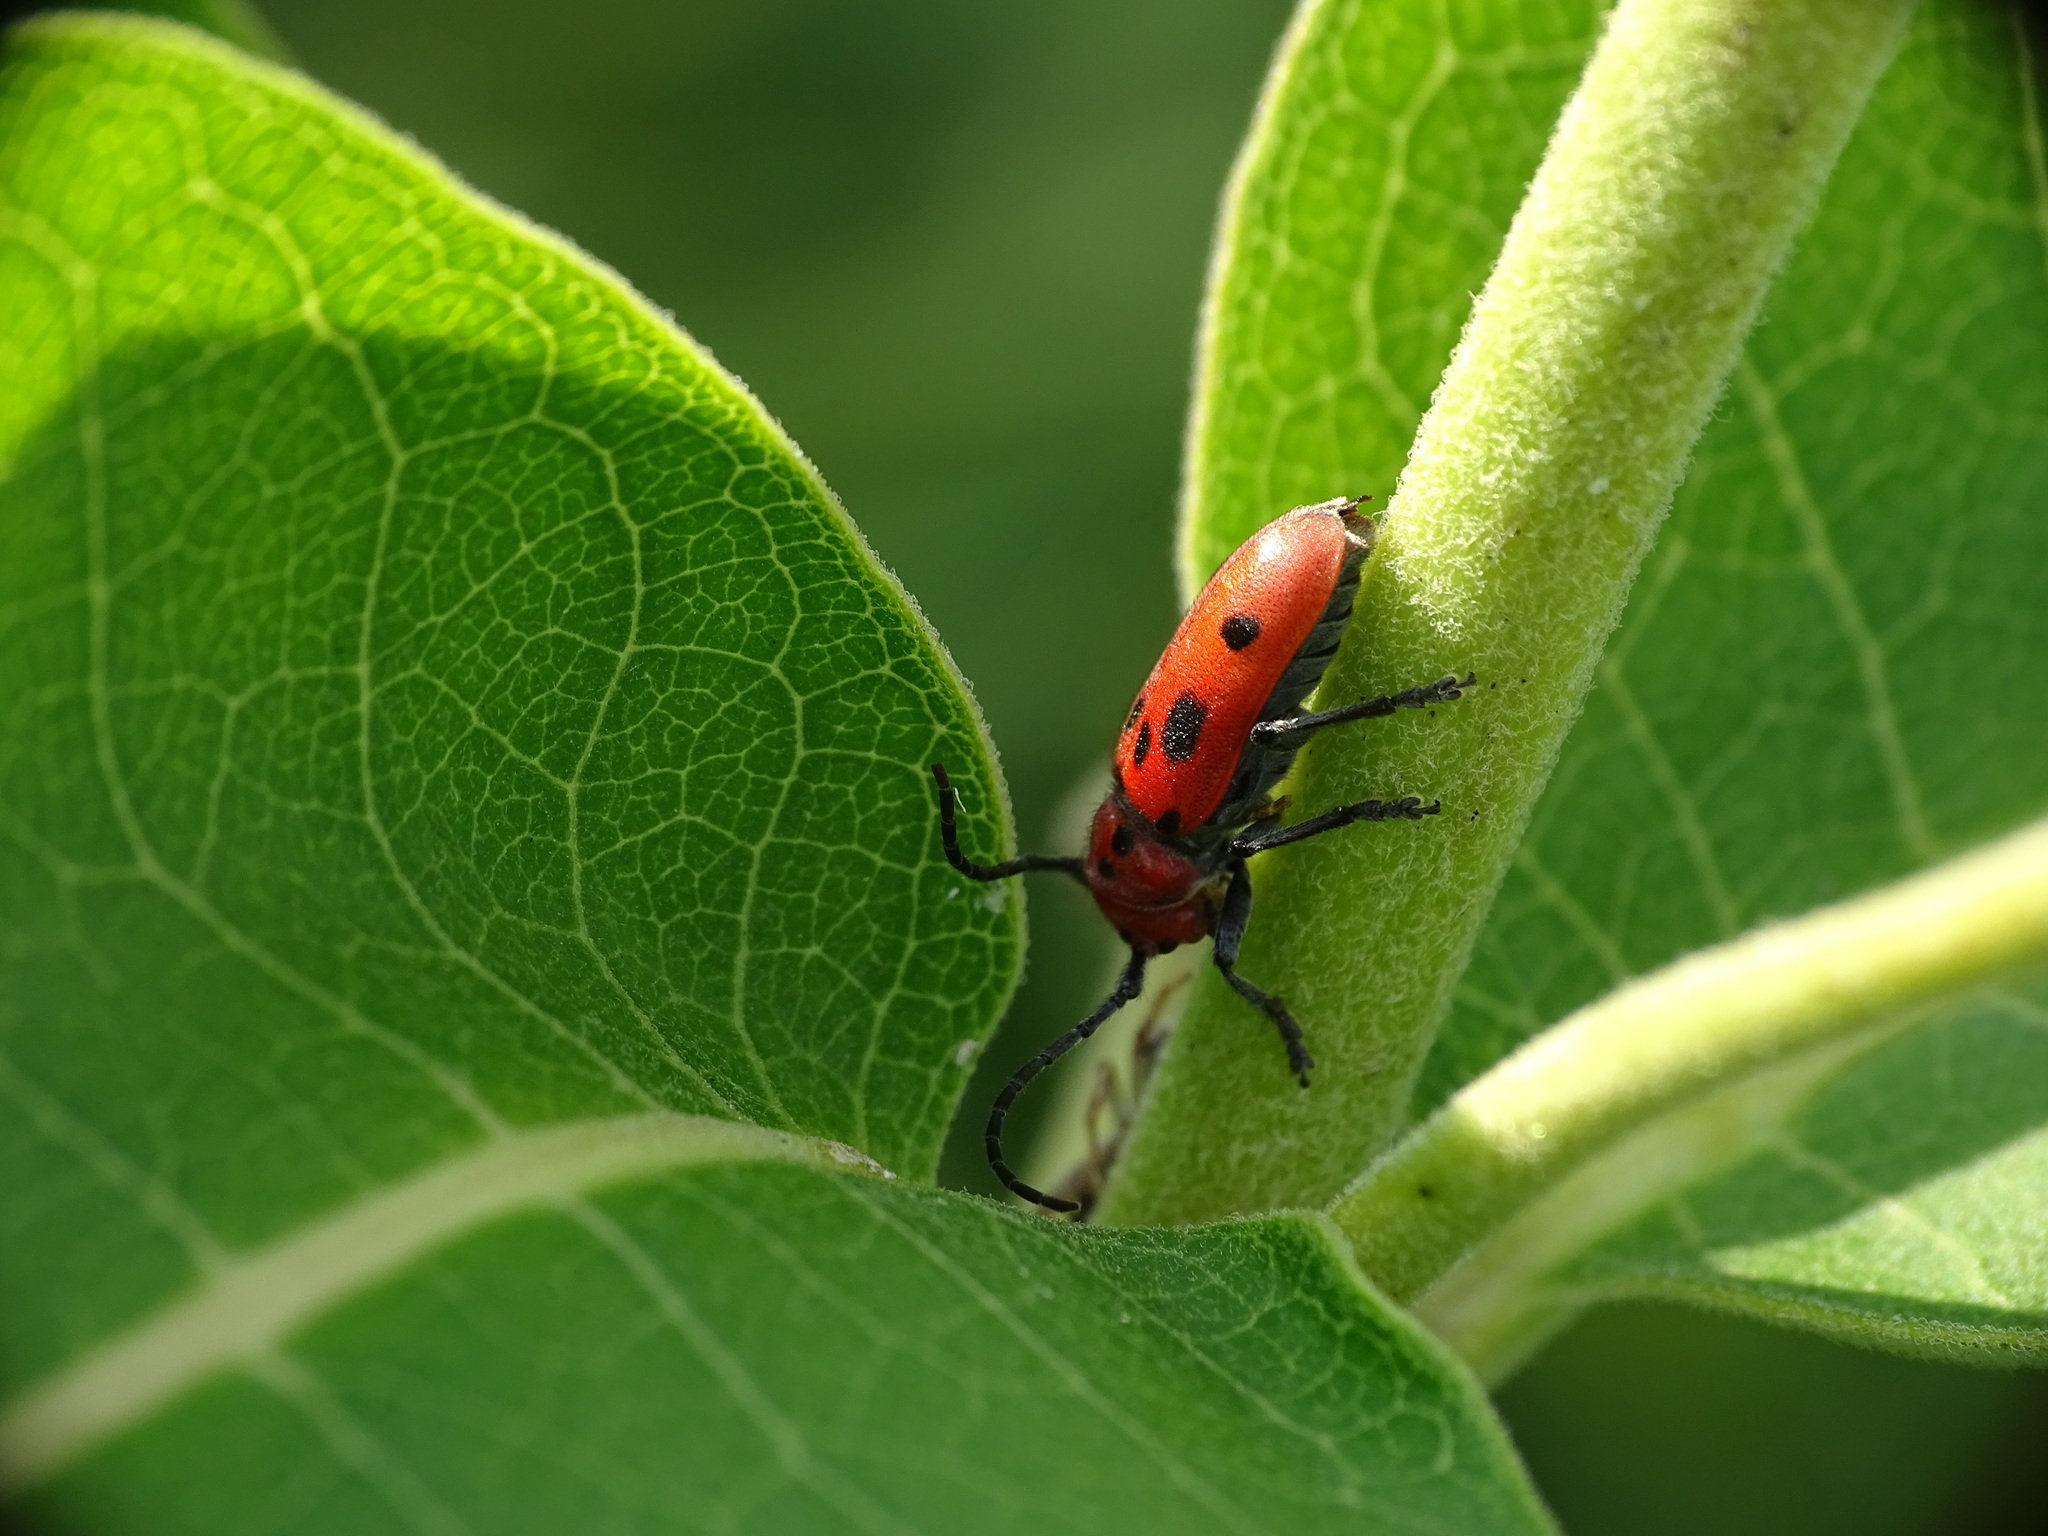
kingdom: Animalia
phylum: Arthropoda
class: Insecta
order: Coleoptera
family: Cerambycidae
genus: Tetraopes
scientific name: Tetraopes tetrophthalmus
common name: Red milkweed beetle
